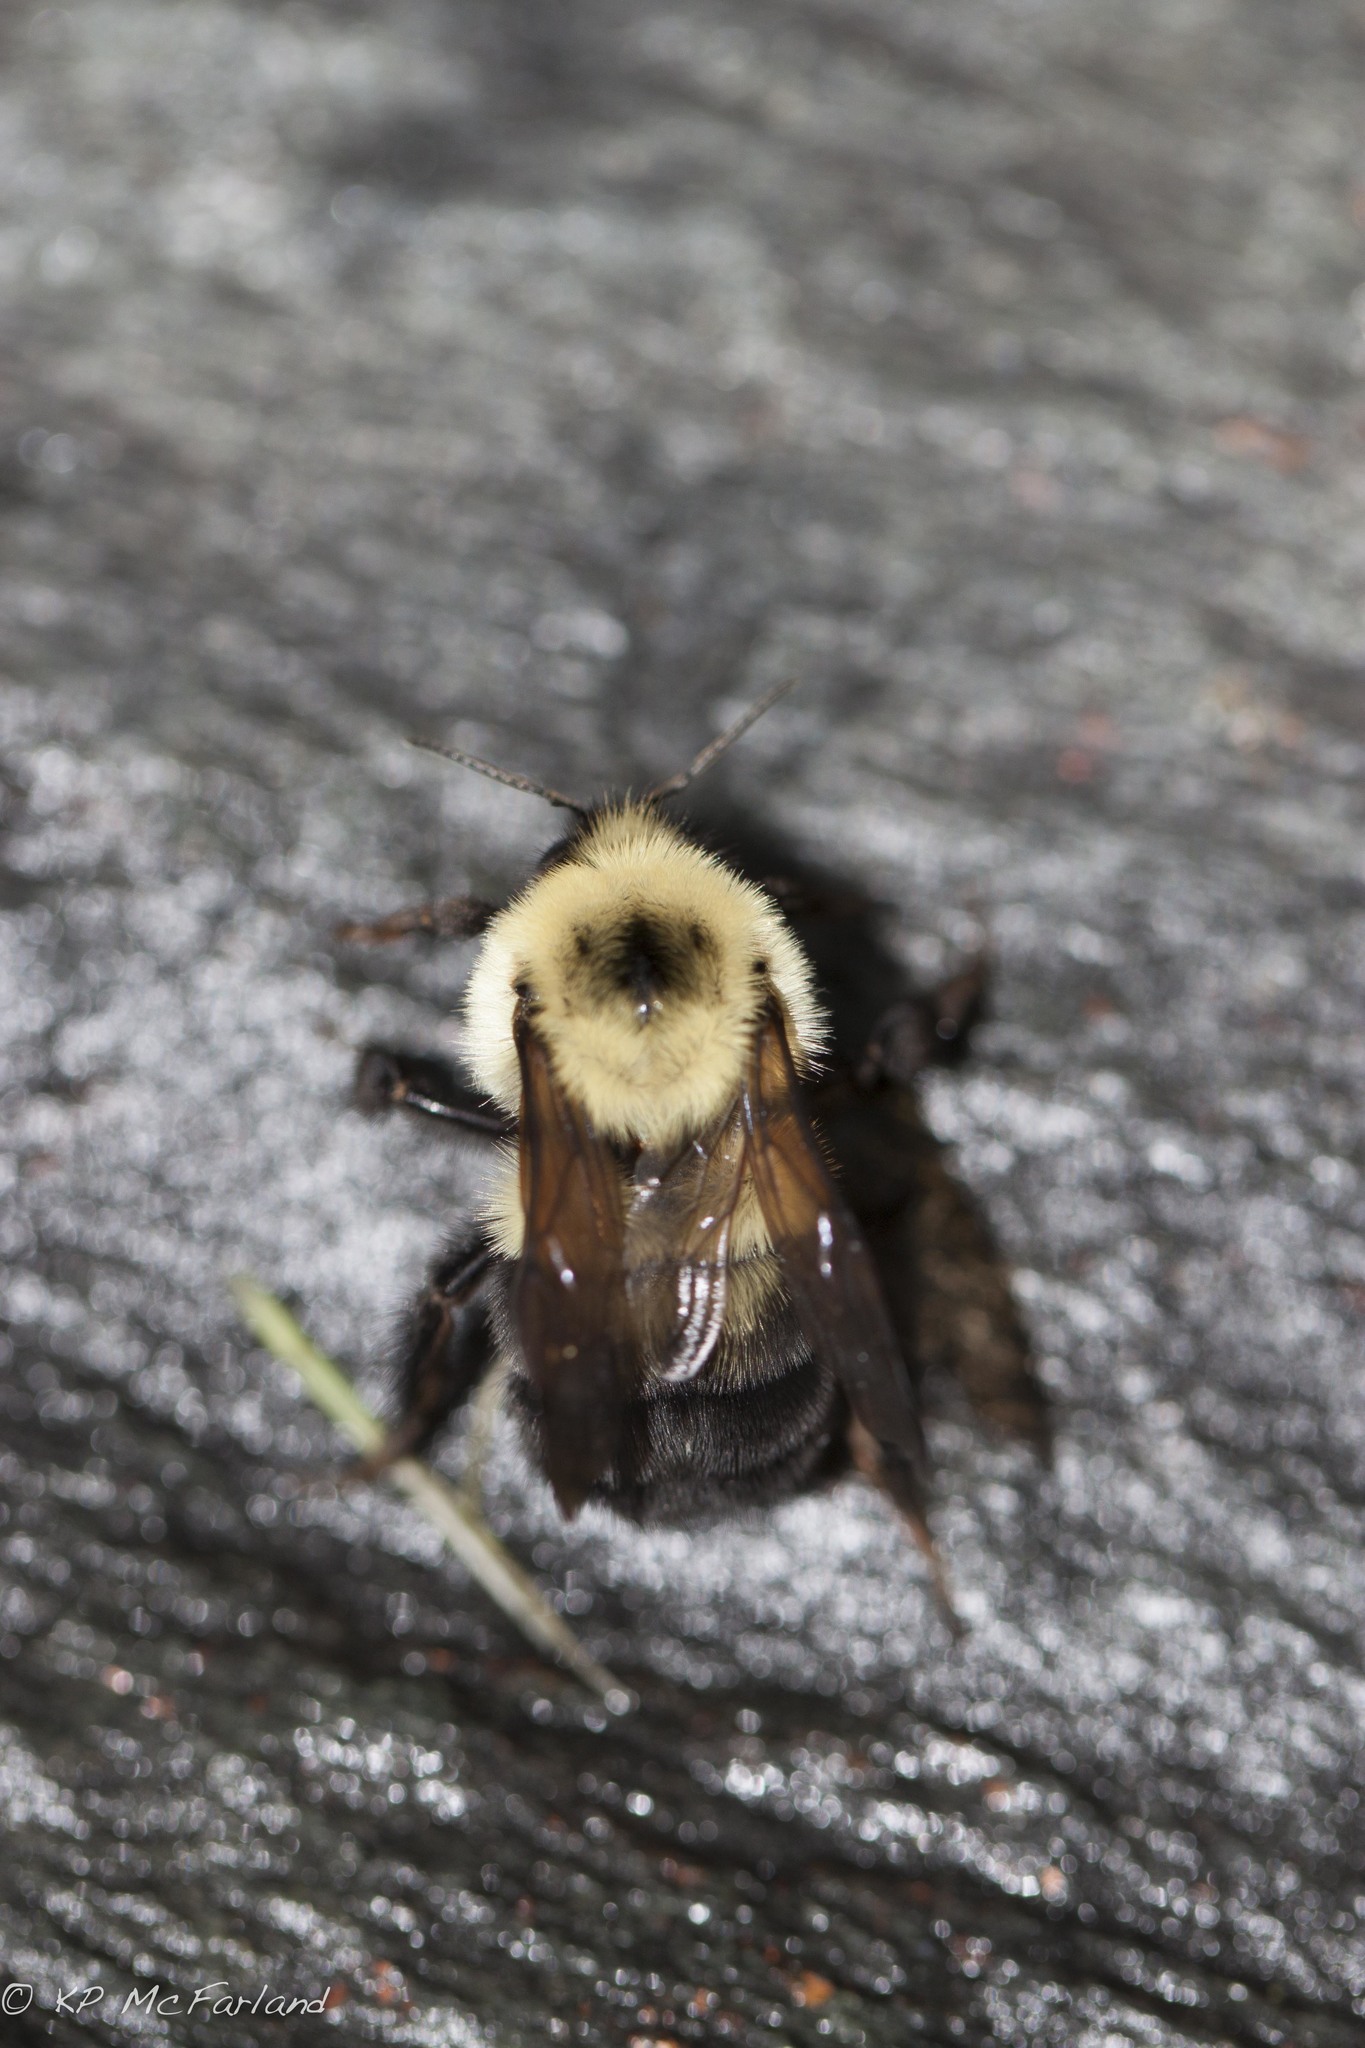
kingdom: Animalia
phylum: Arthropoda
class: Insecta
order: Hymenoptera
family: Apidae
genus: Bombus
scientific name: Bombus bimaculatus
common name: Two-spotted bumble bee
